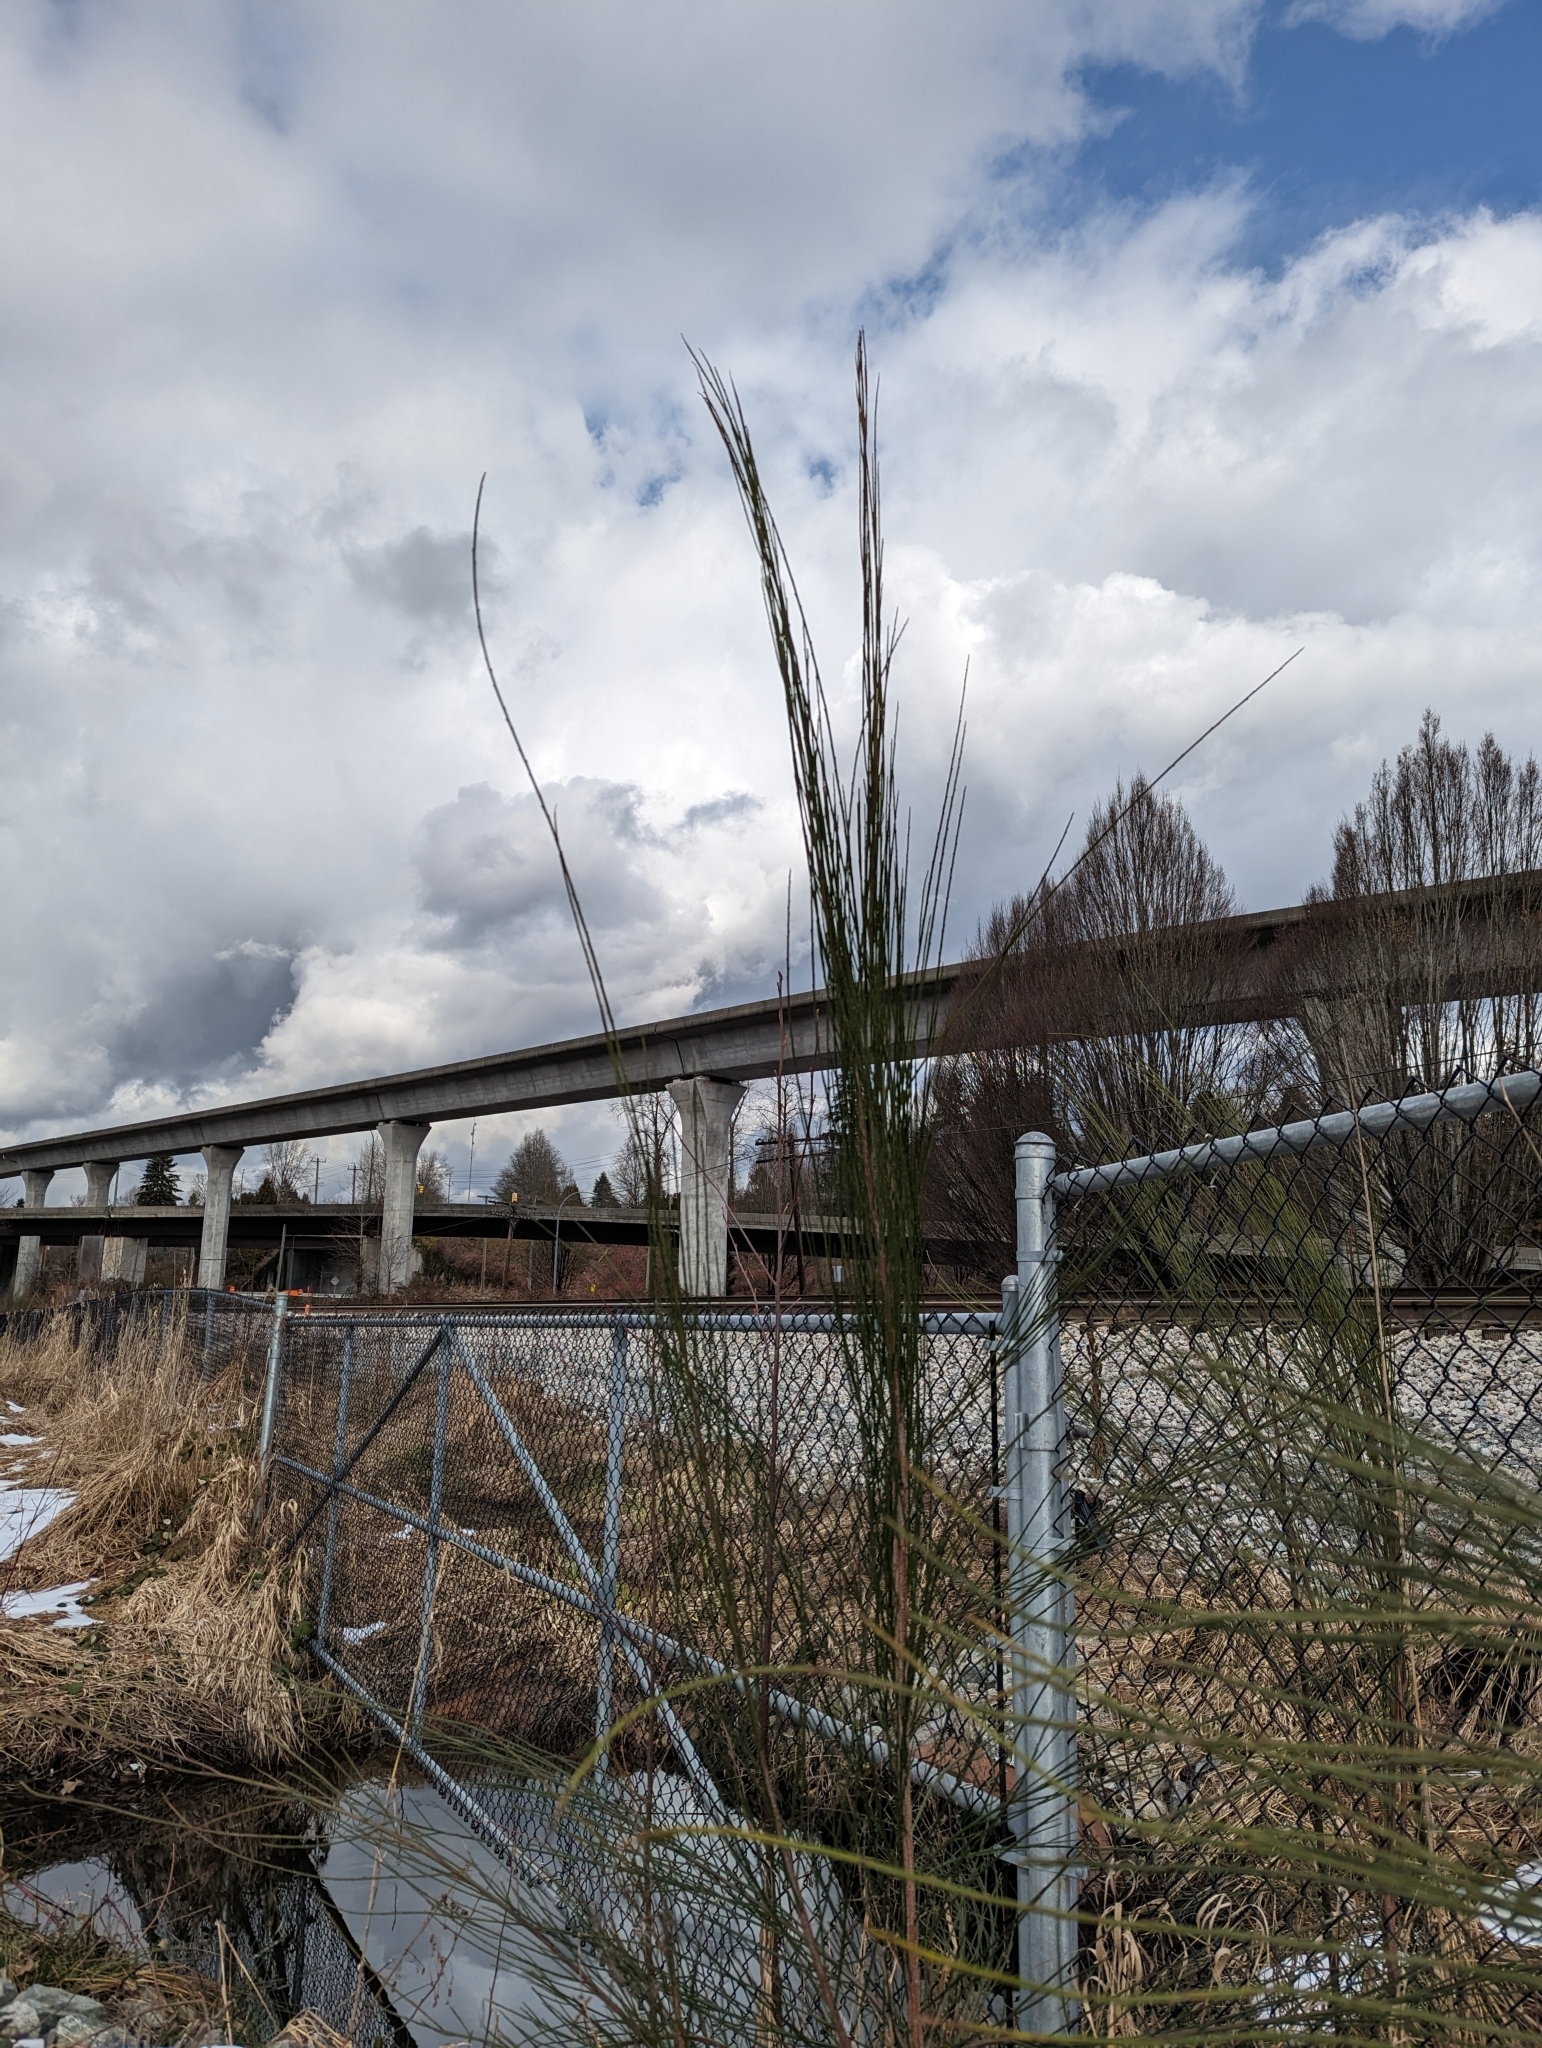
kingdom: Plantae
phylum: Tracheophyta
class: Magnoliopsida
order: Fabales
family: Fabaceae
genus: Cytisus
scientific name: Cytisus scoparius
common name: Scotch broom
